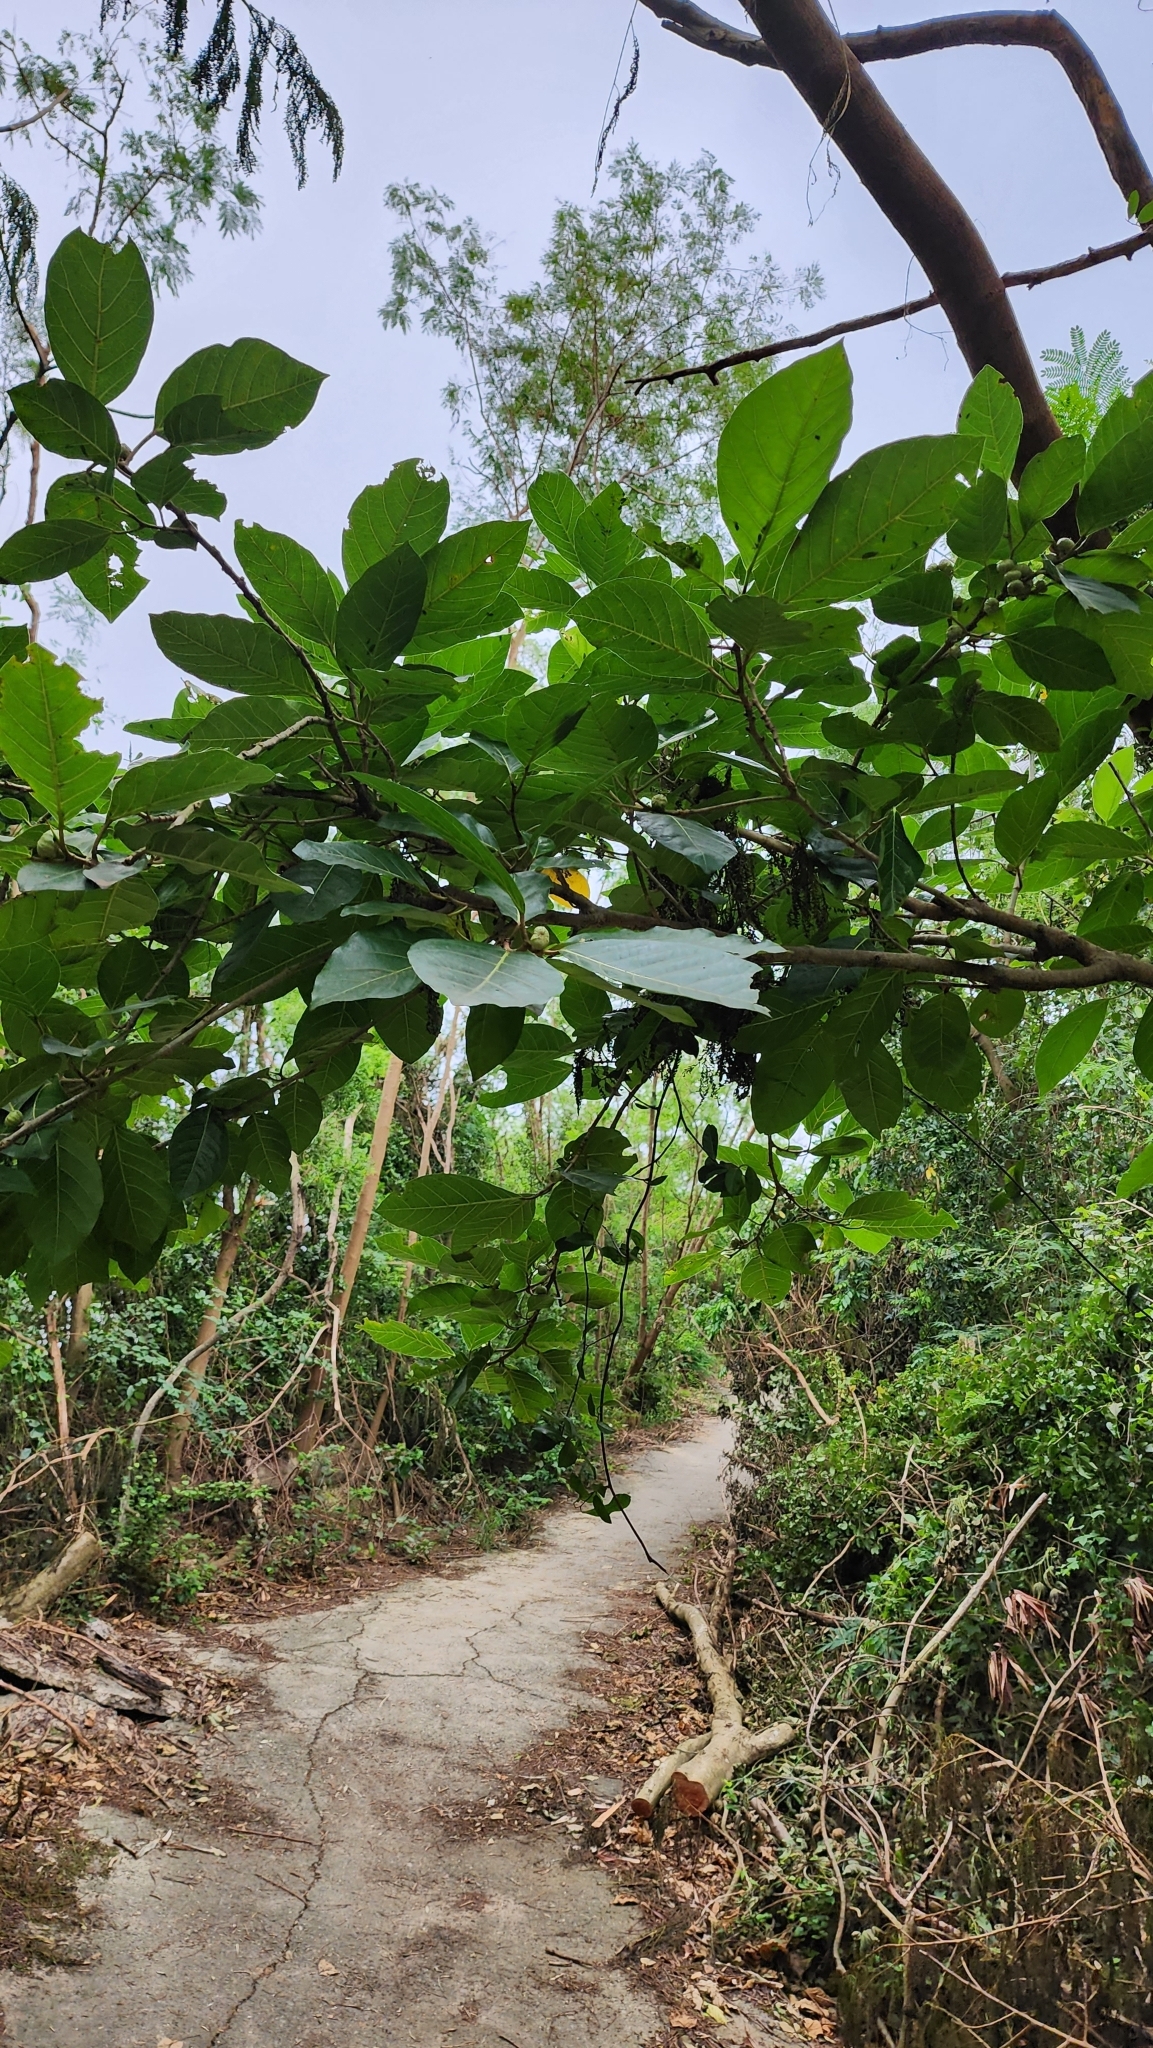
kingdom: Plantae
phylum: Tracheophyta
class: Magnoliopsida
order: Rosales
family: Moraceae
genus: Ficus
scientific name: Ficus septica
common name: Septic fig
